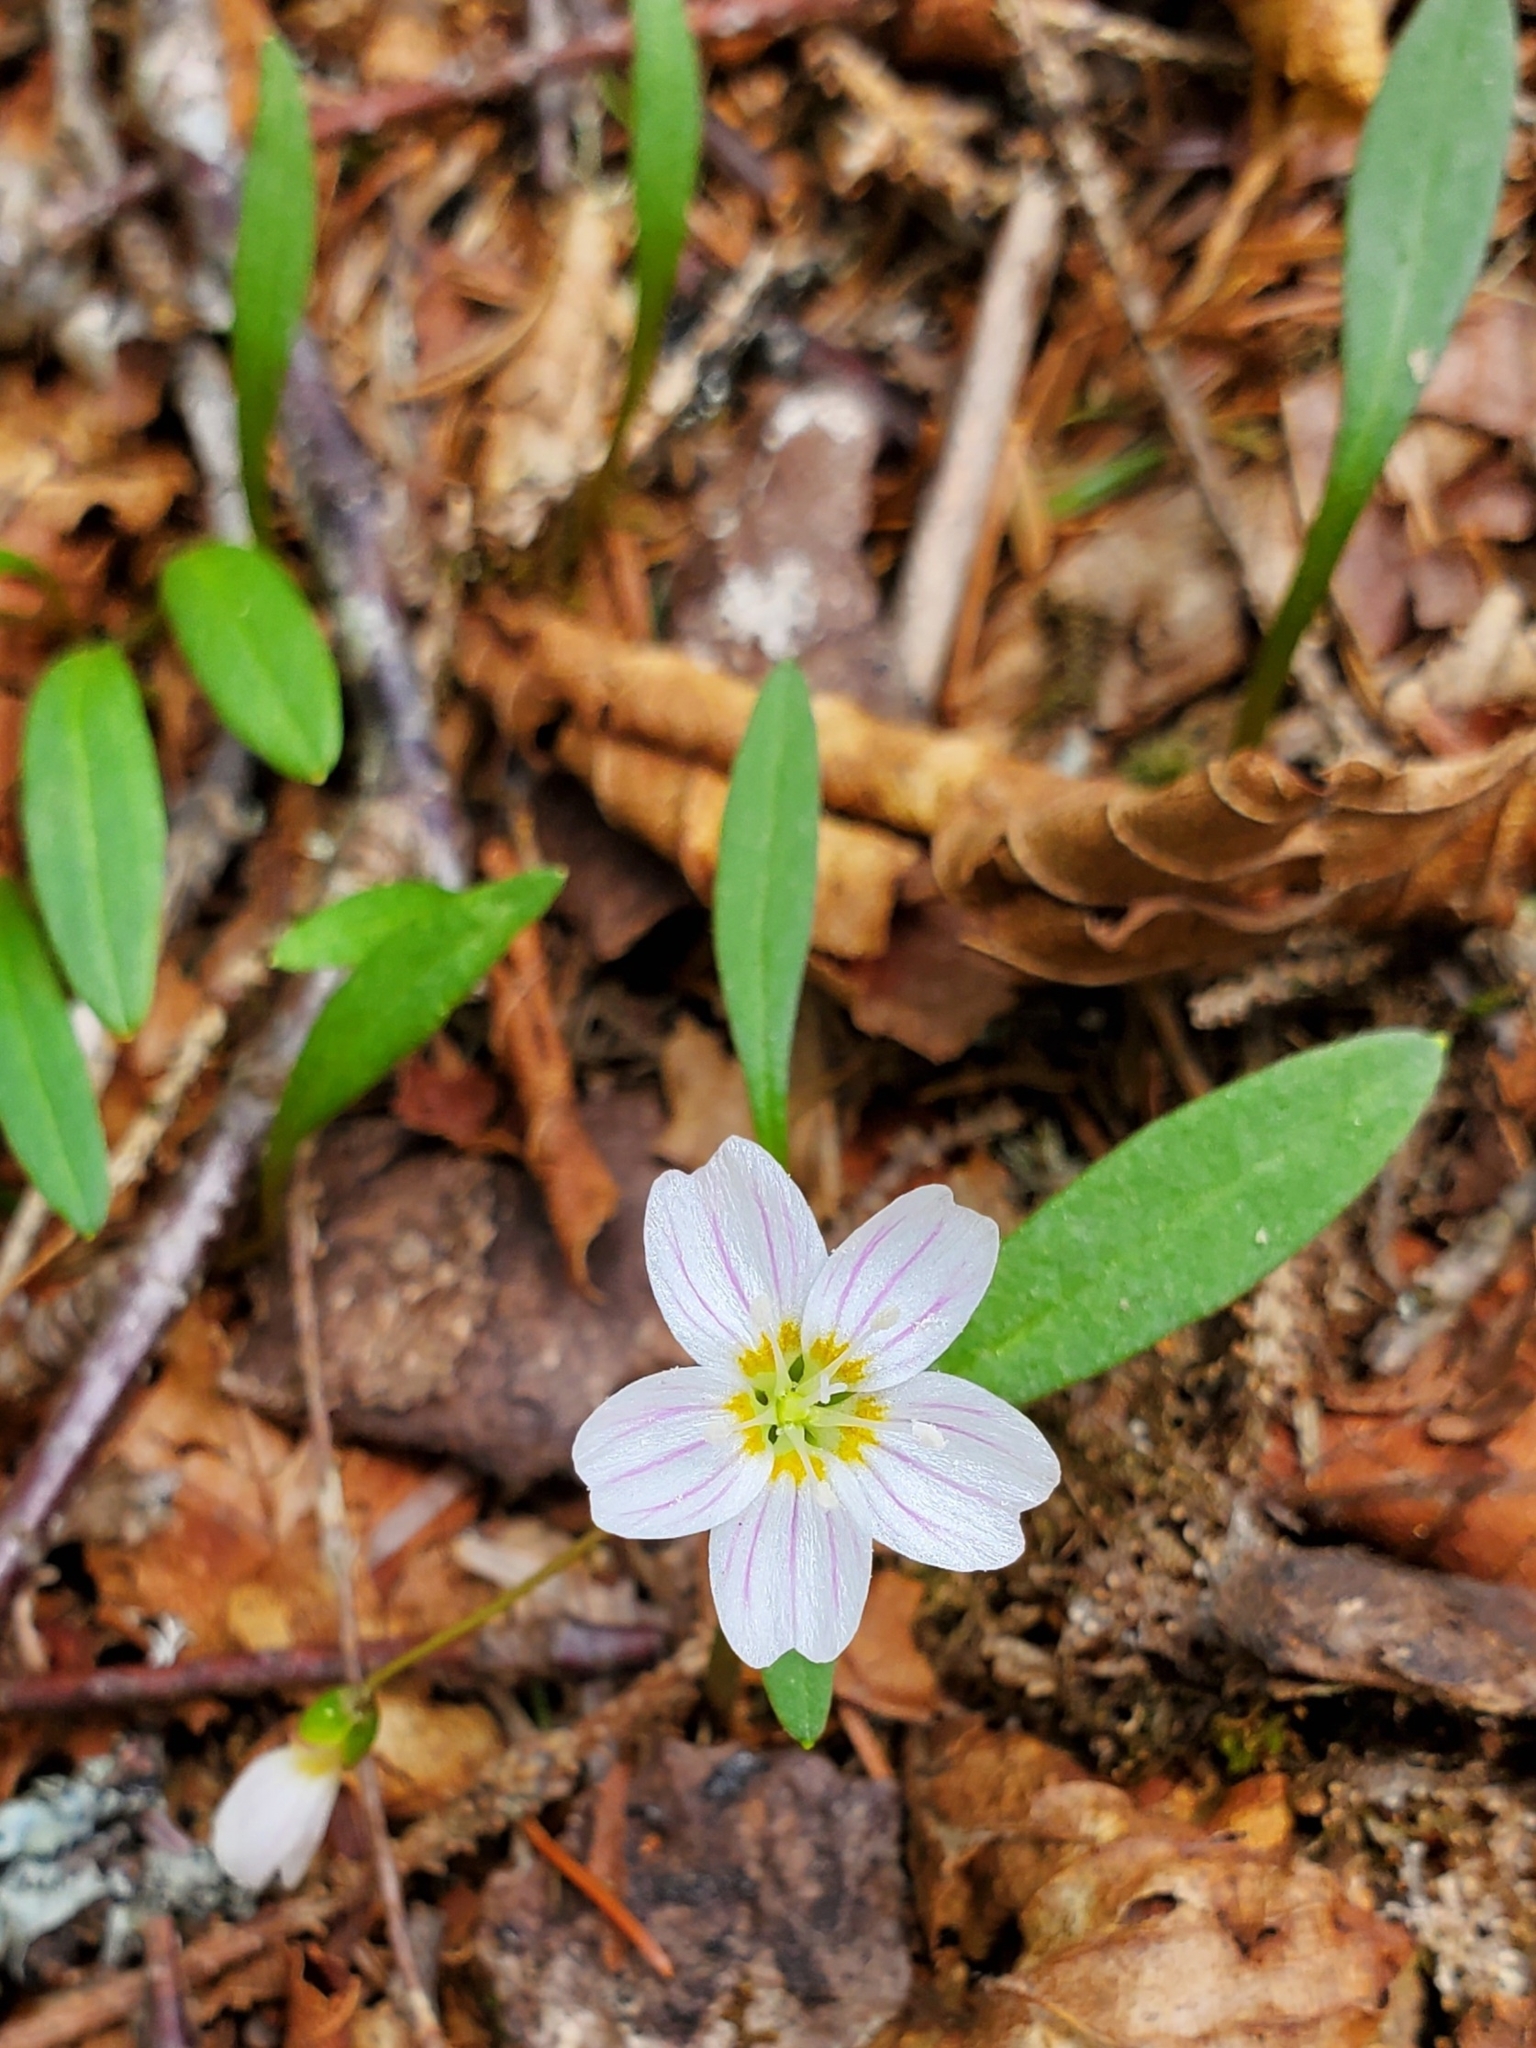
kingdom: Plantae
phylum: Tracheophyta
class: Magnoliopsida
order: Caryophyllales
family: Montiaceae
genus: Claytonia
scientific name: Claytonia caroliniana
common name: Carolina spring beauty
